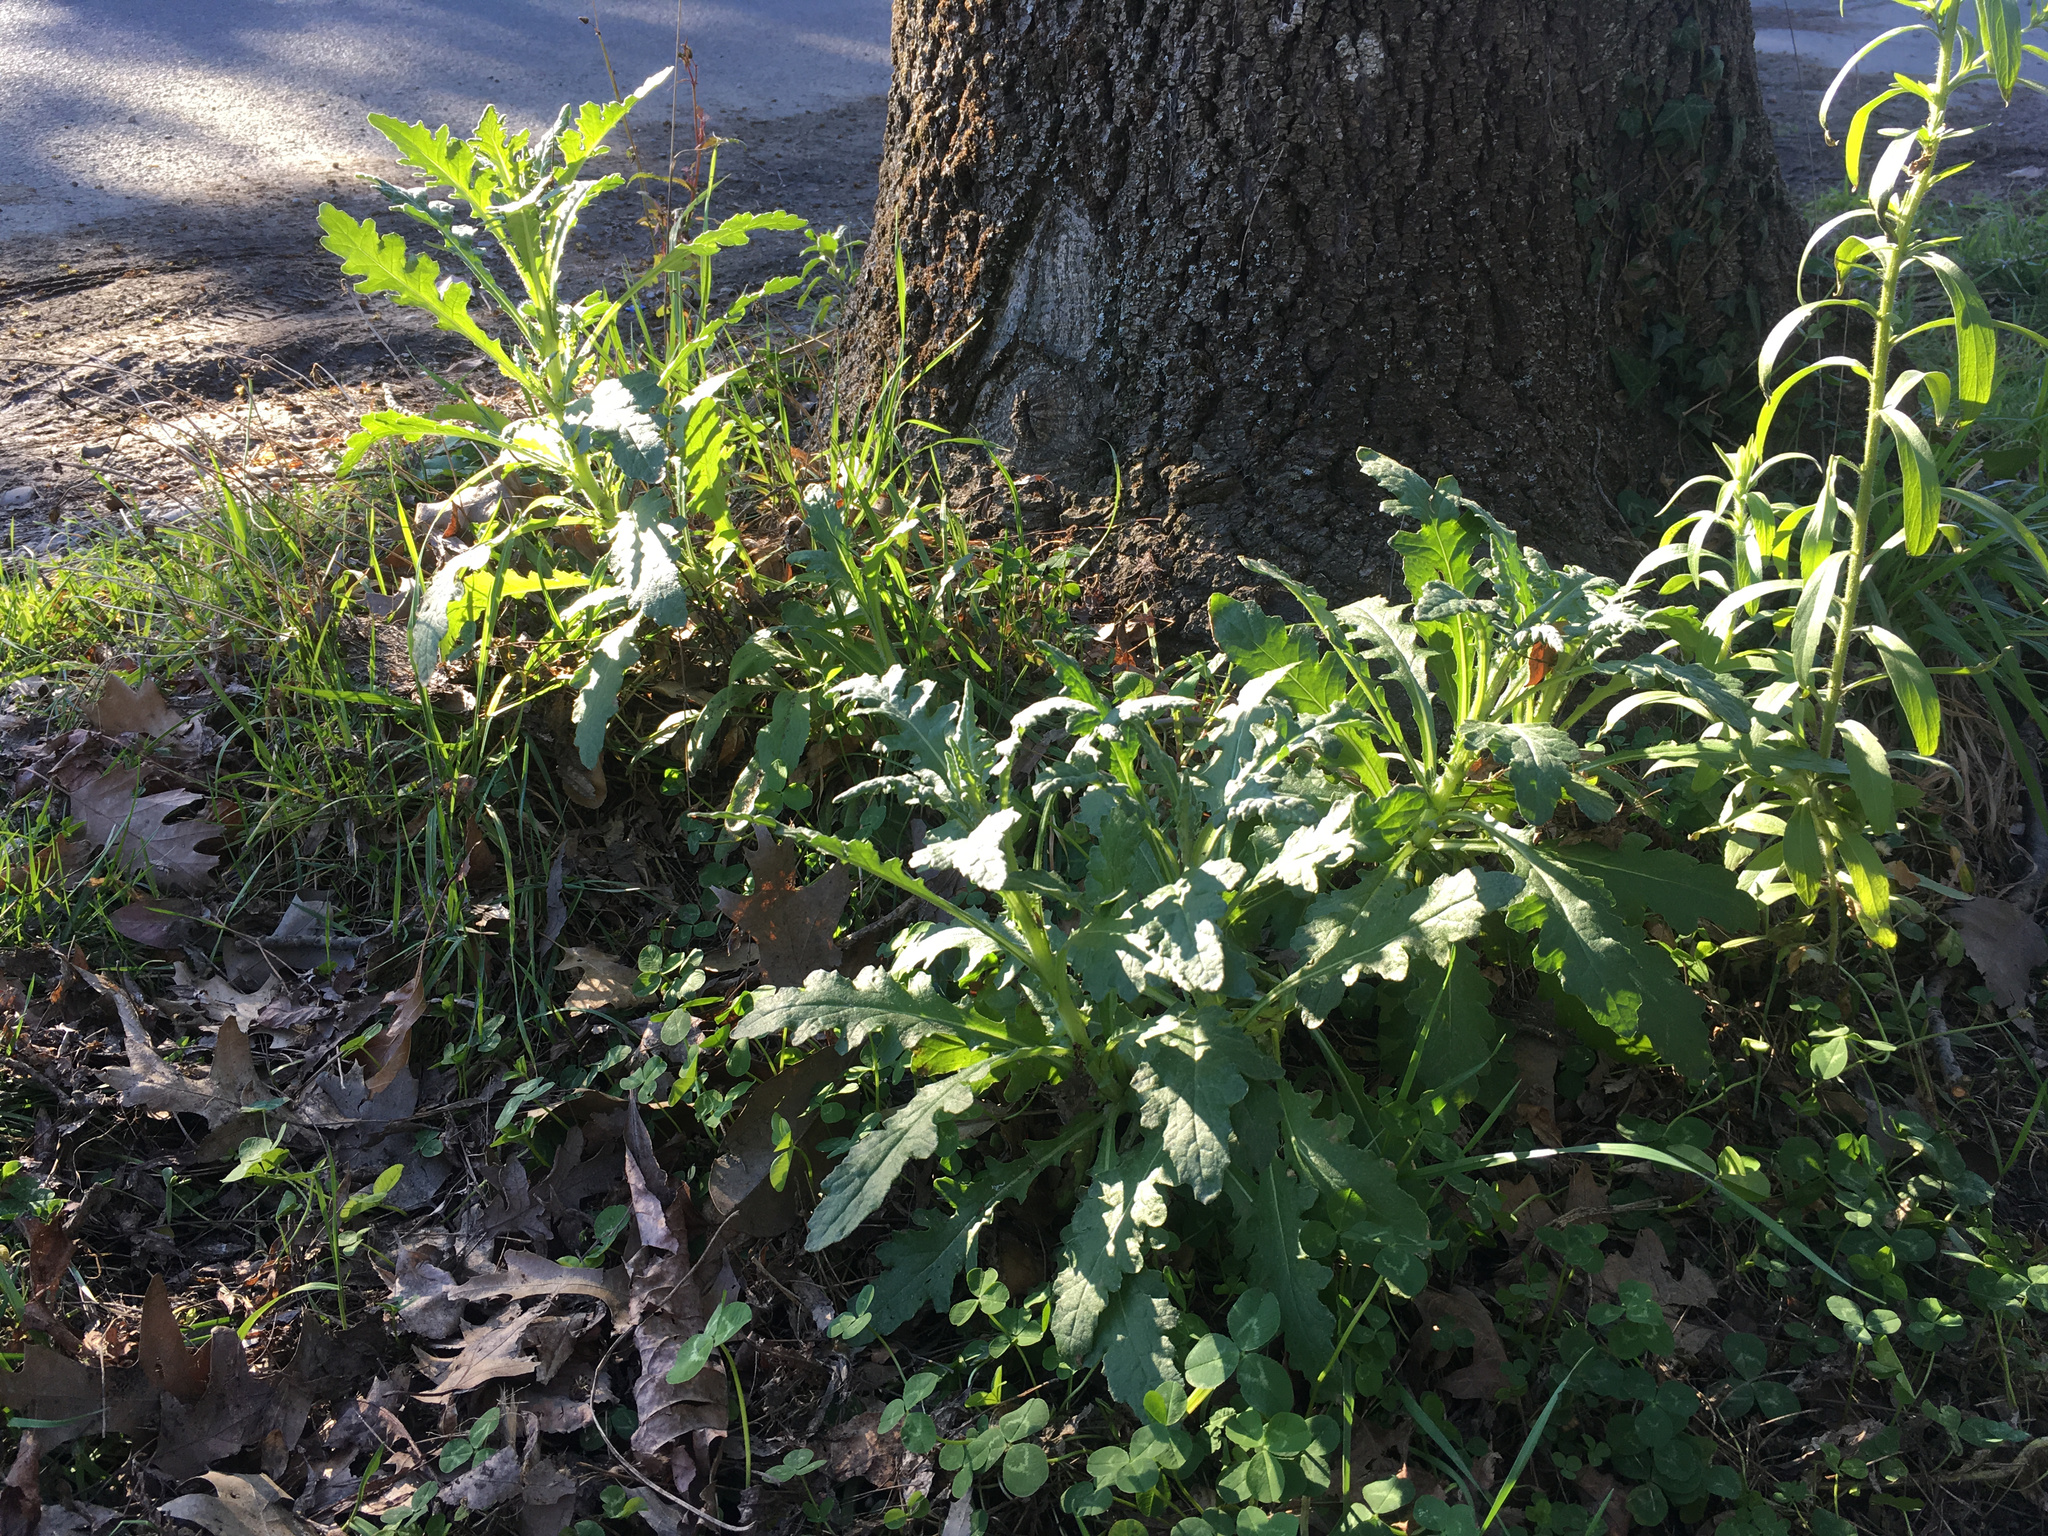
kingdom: Plantae
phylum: Tracheophyta
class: Magnoliopsida
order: Asterales
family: Asteraceae
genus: Senecio
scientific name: Senecio glomeratus
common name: Cutleaf burnweed
